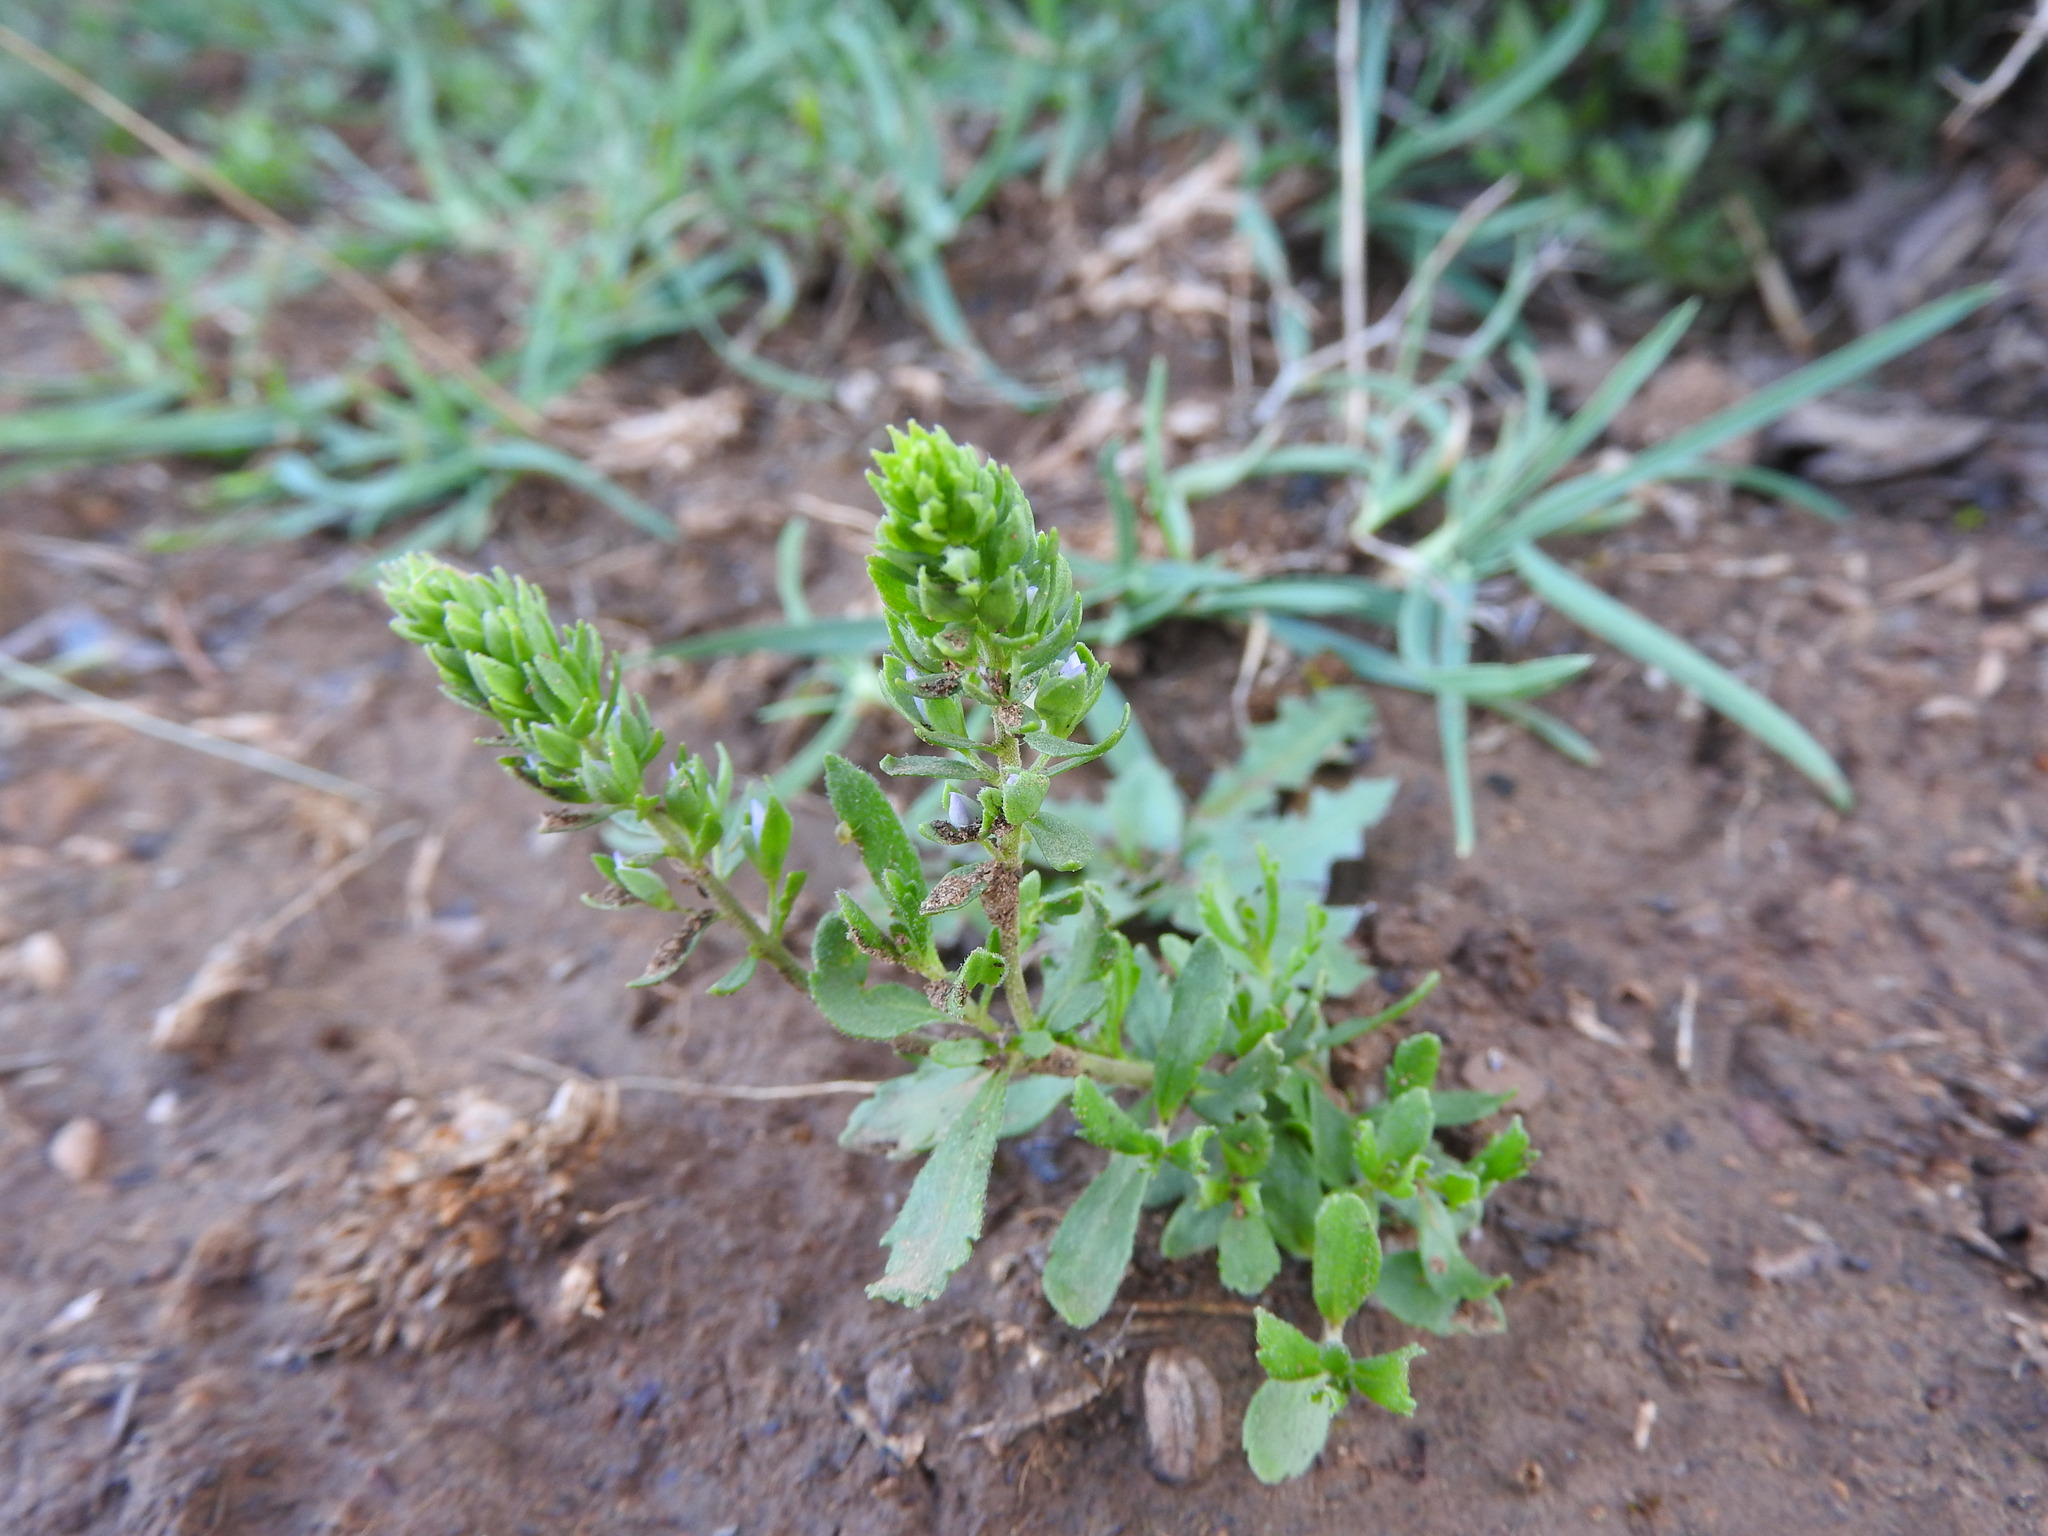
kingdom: Plantae
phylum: Tracheophyta
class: Magnoliopsida
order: Lamiales
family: Plantaginaceae
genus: Veronica
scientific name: Veronica rosea
